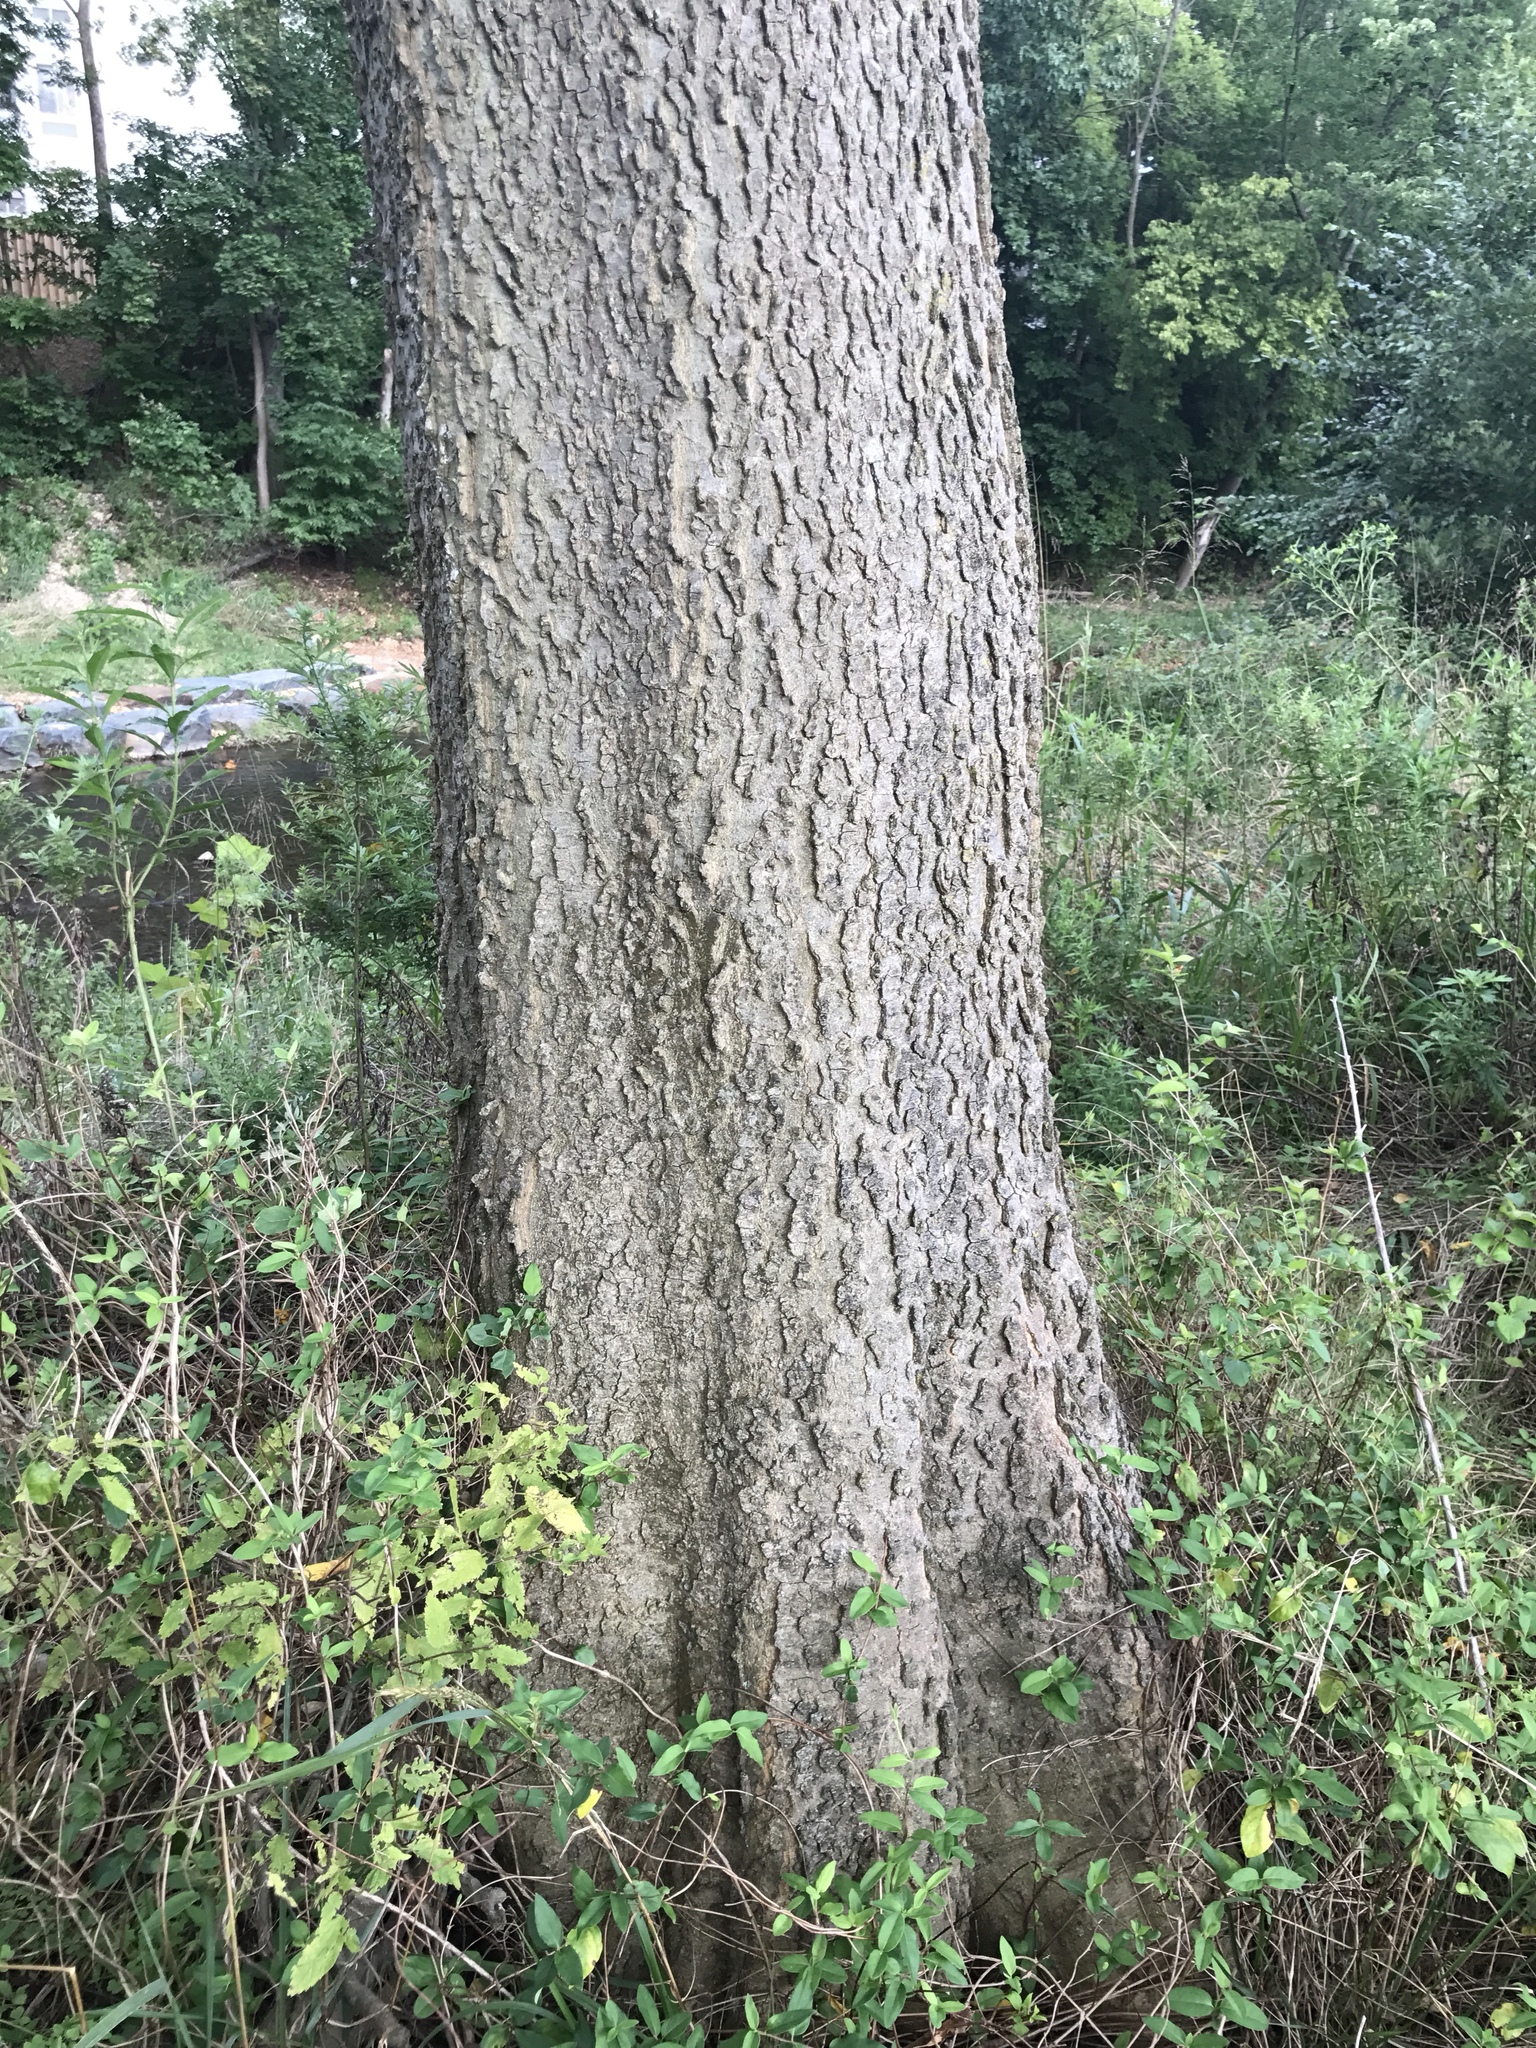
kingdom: Plantae
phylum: Tracheophyta
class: Magnoliopsida
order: Rosales
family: Cannabaceae
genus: Celtis
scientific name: Celtis occidentalis
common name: Common hackberry
